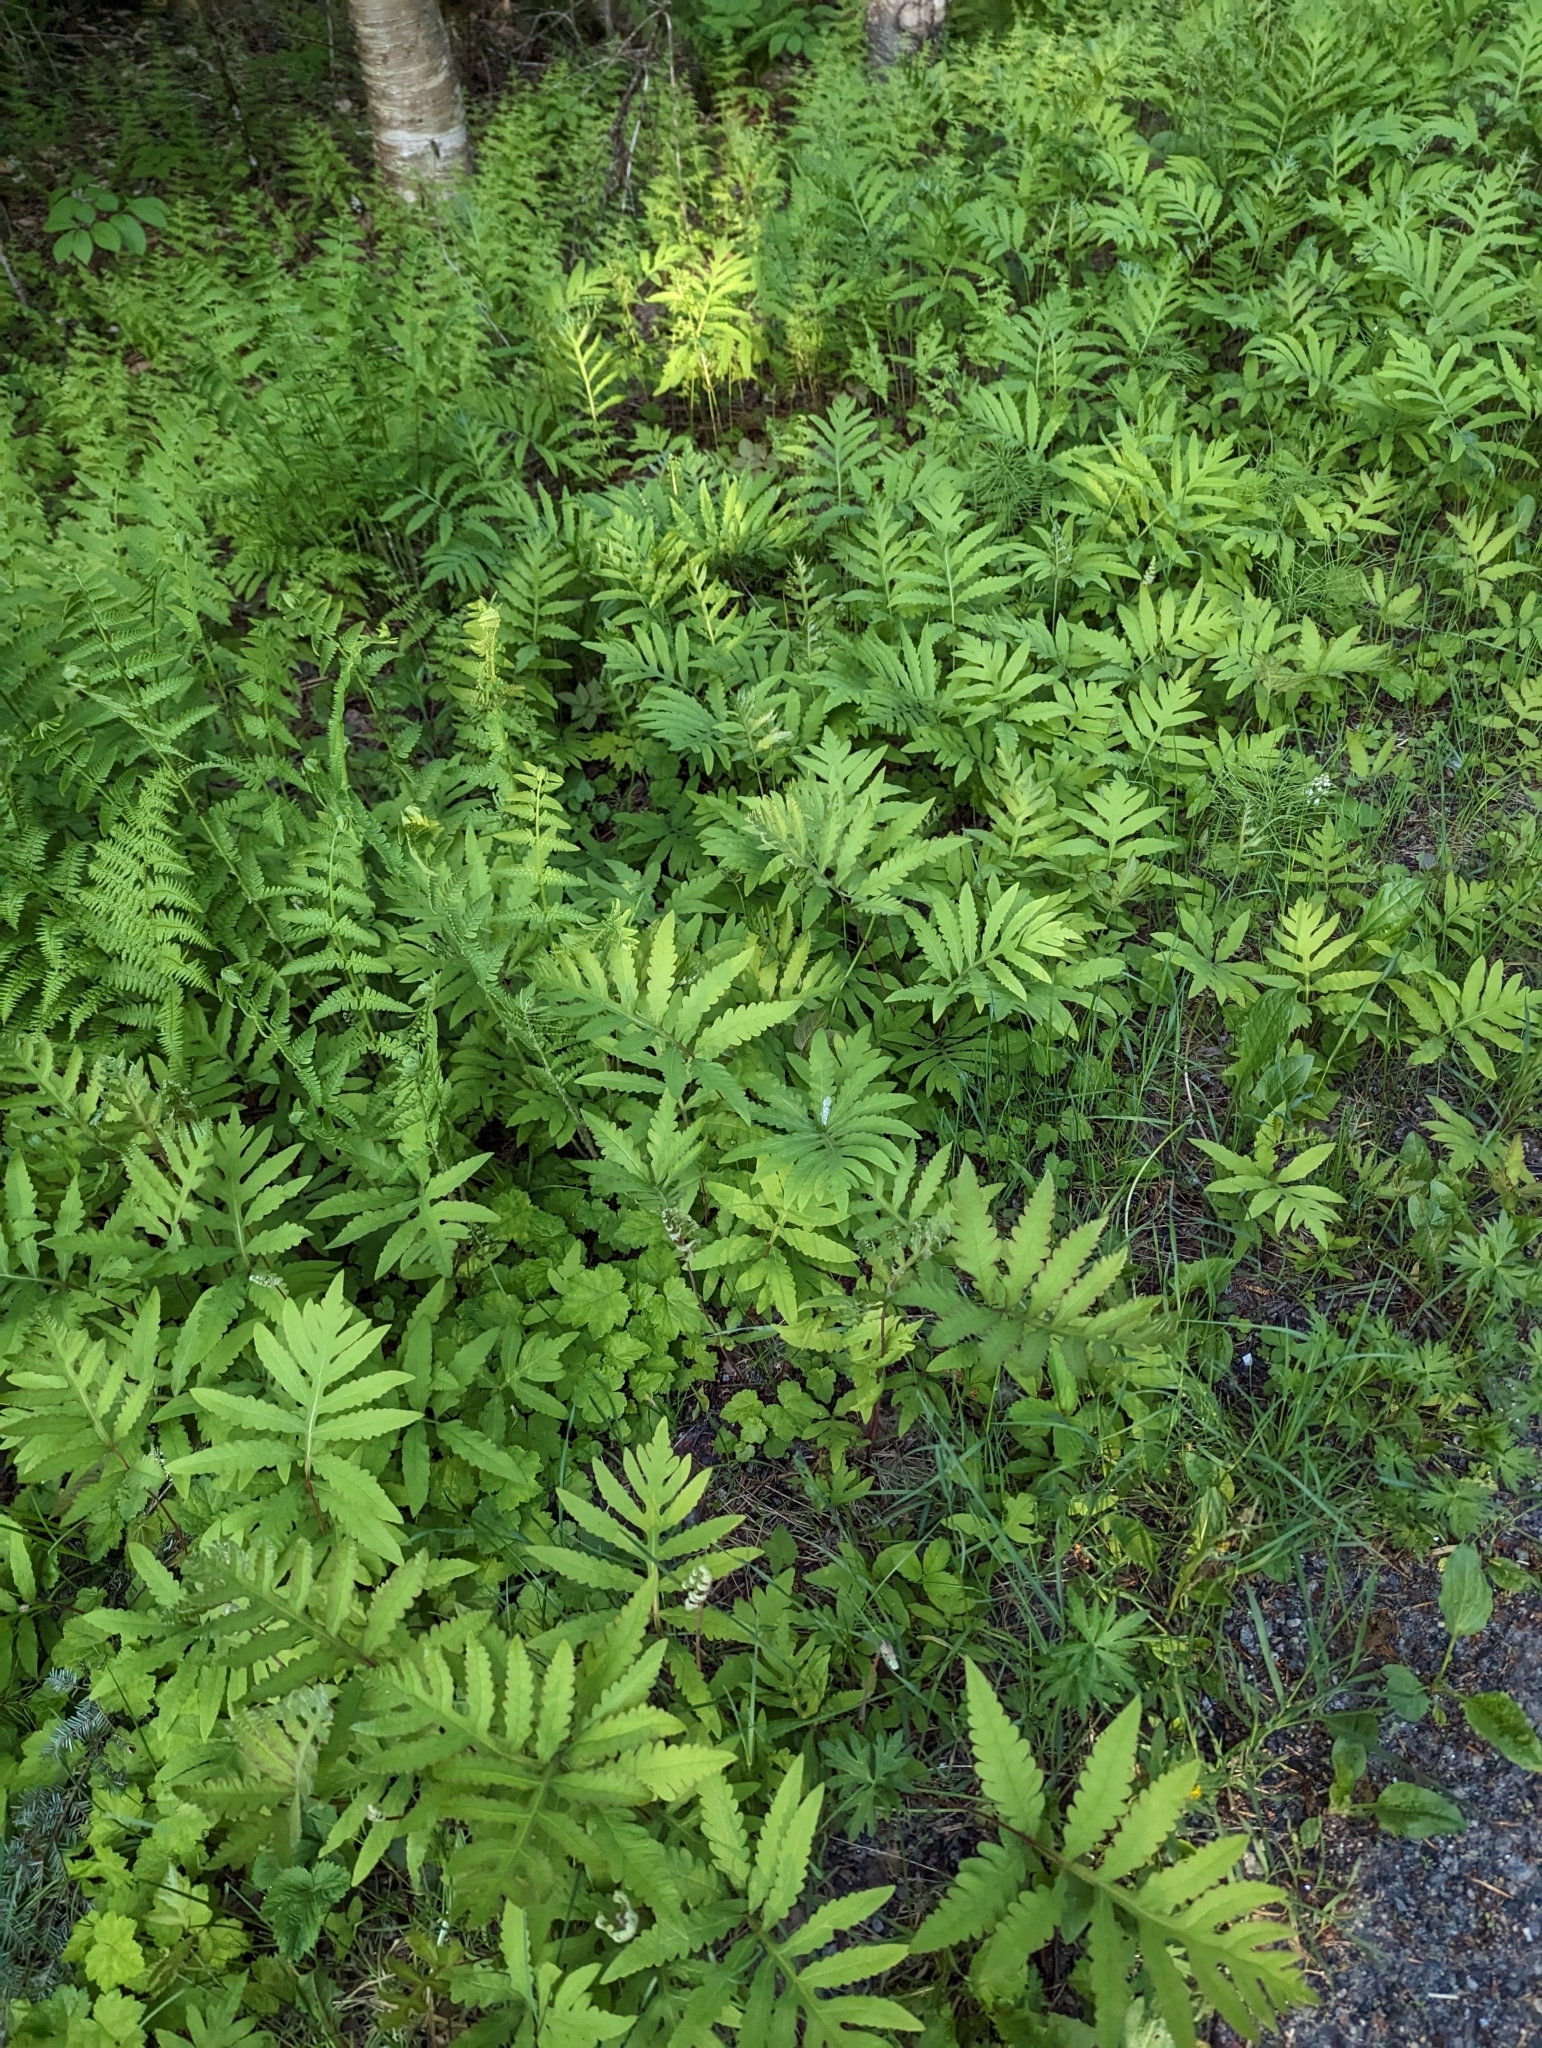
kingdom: Plantae
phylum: Tracheophyta
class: Polypodiopsida
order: Polypodiales
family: Onocleaceae
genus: Onoclea
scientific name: Onoclea sensibilis
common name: Sensitive fern
